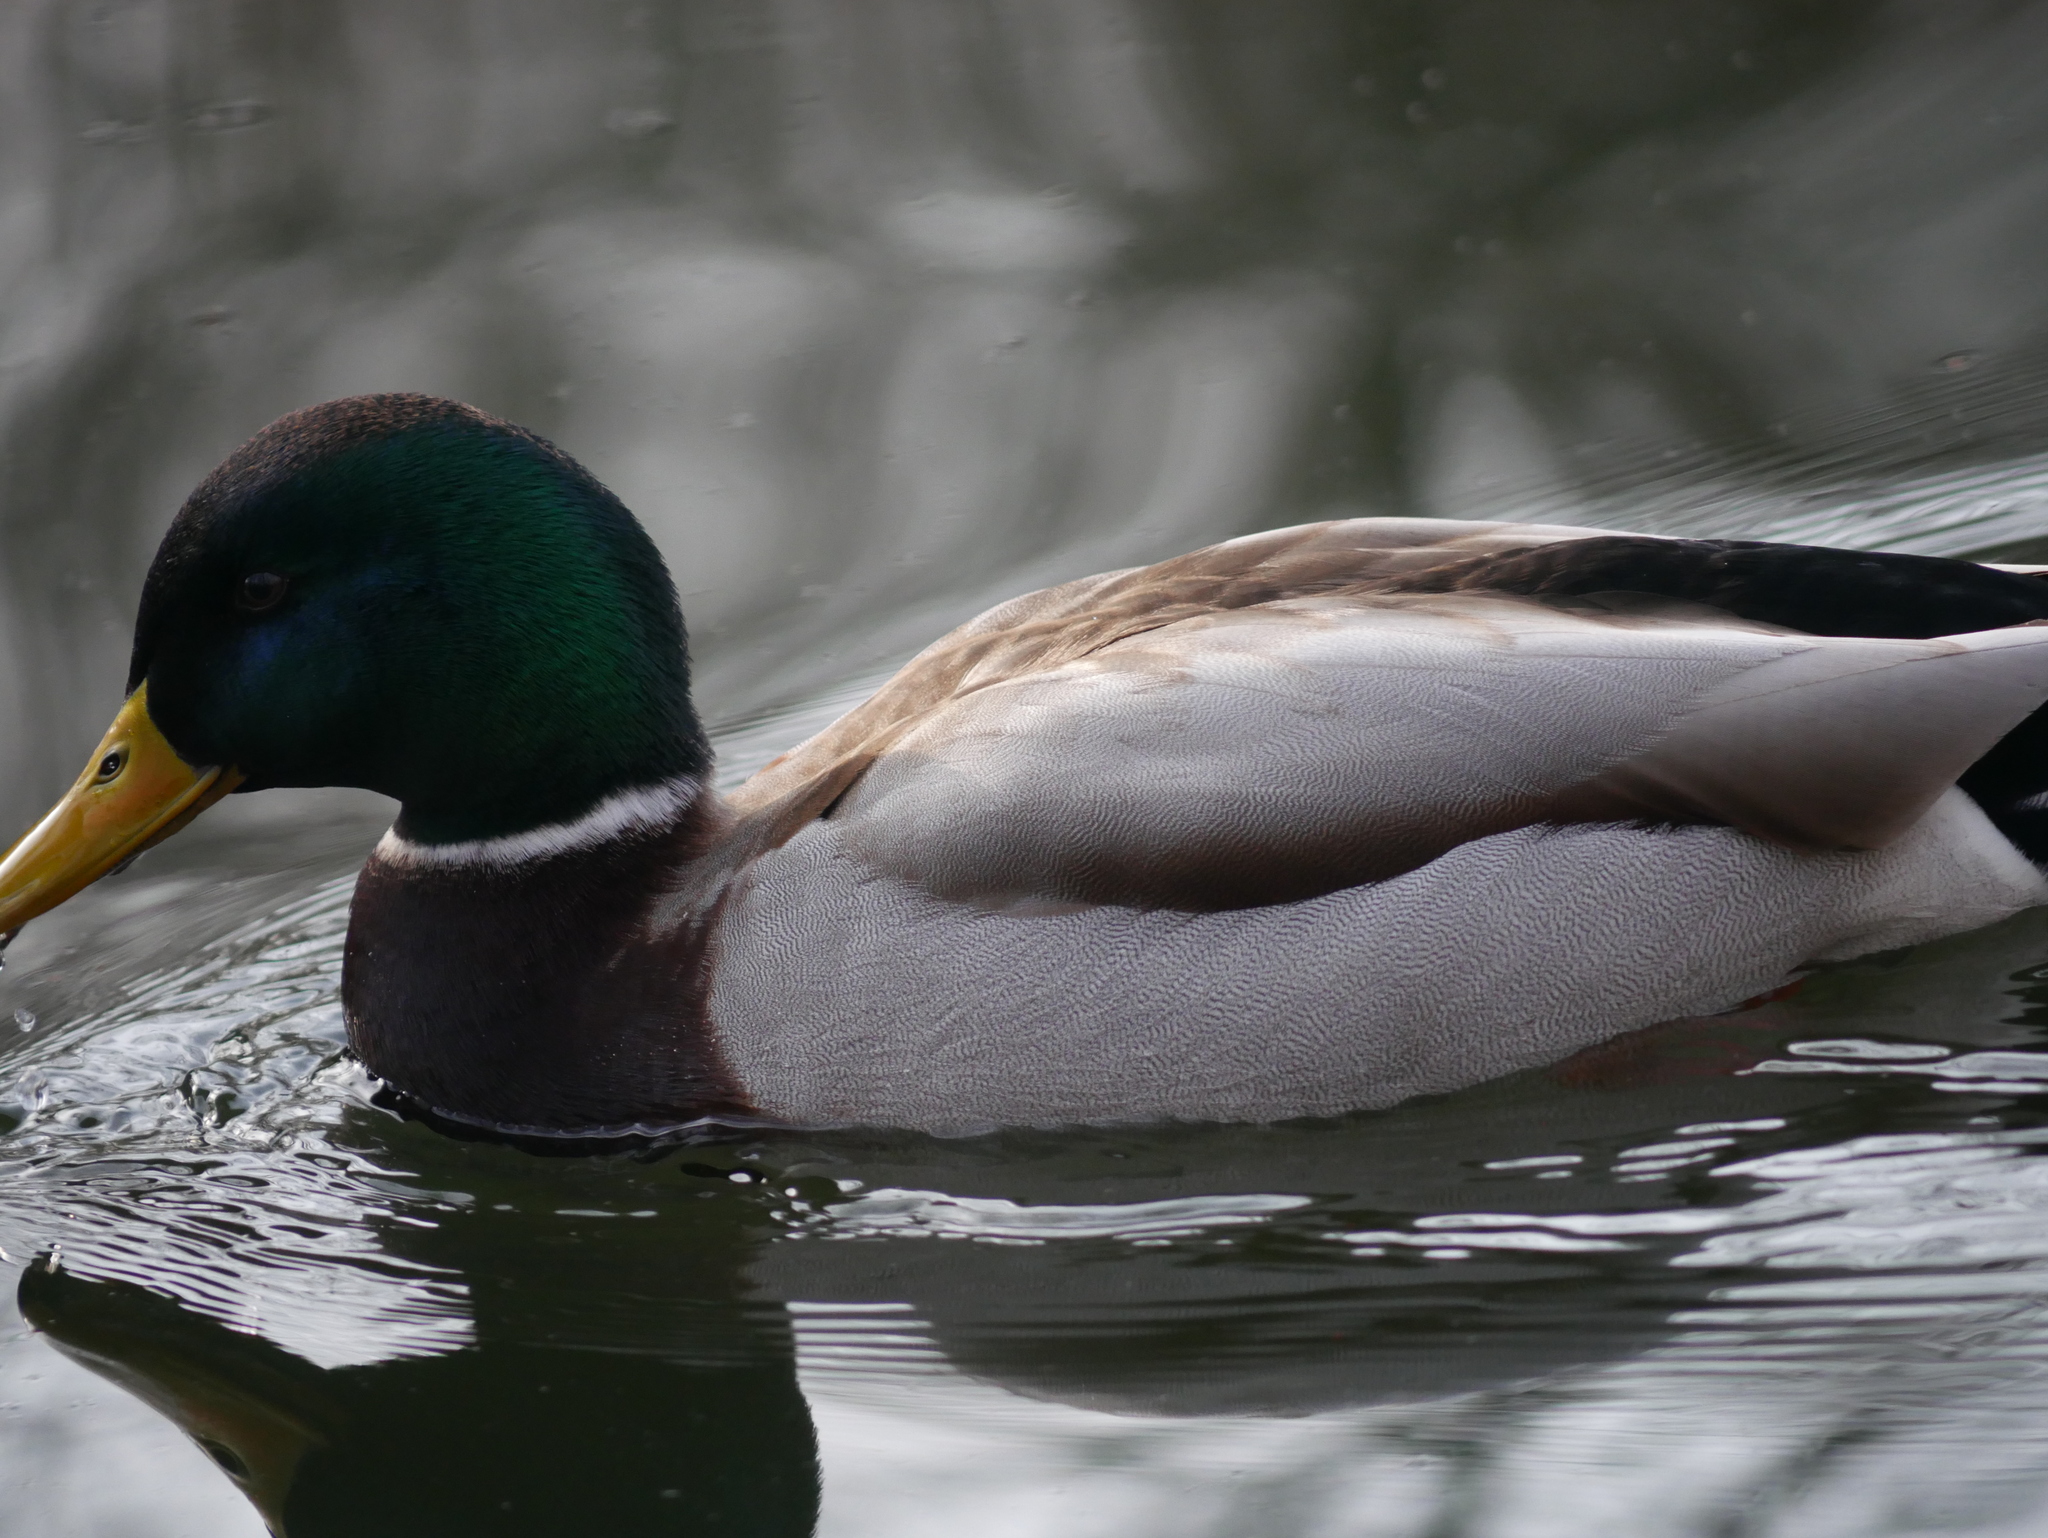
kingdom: Animalia
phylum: Chordata
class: Aves
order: Anseriformes
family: Anatidae
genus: Anas
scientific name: Anas platyrhynchos
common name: Mallard
